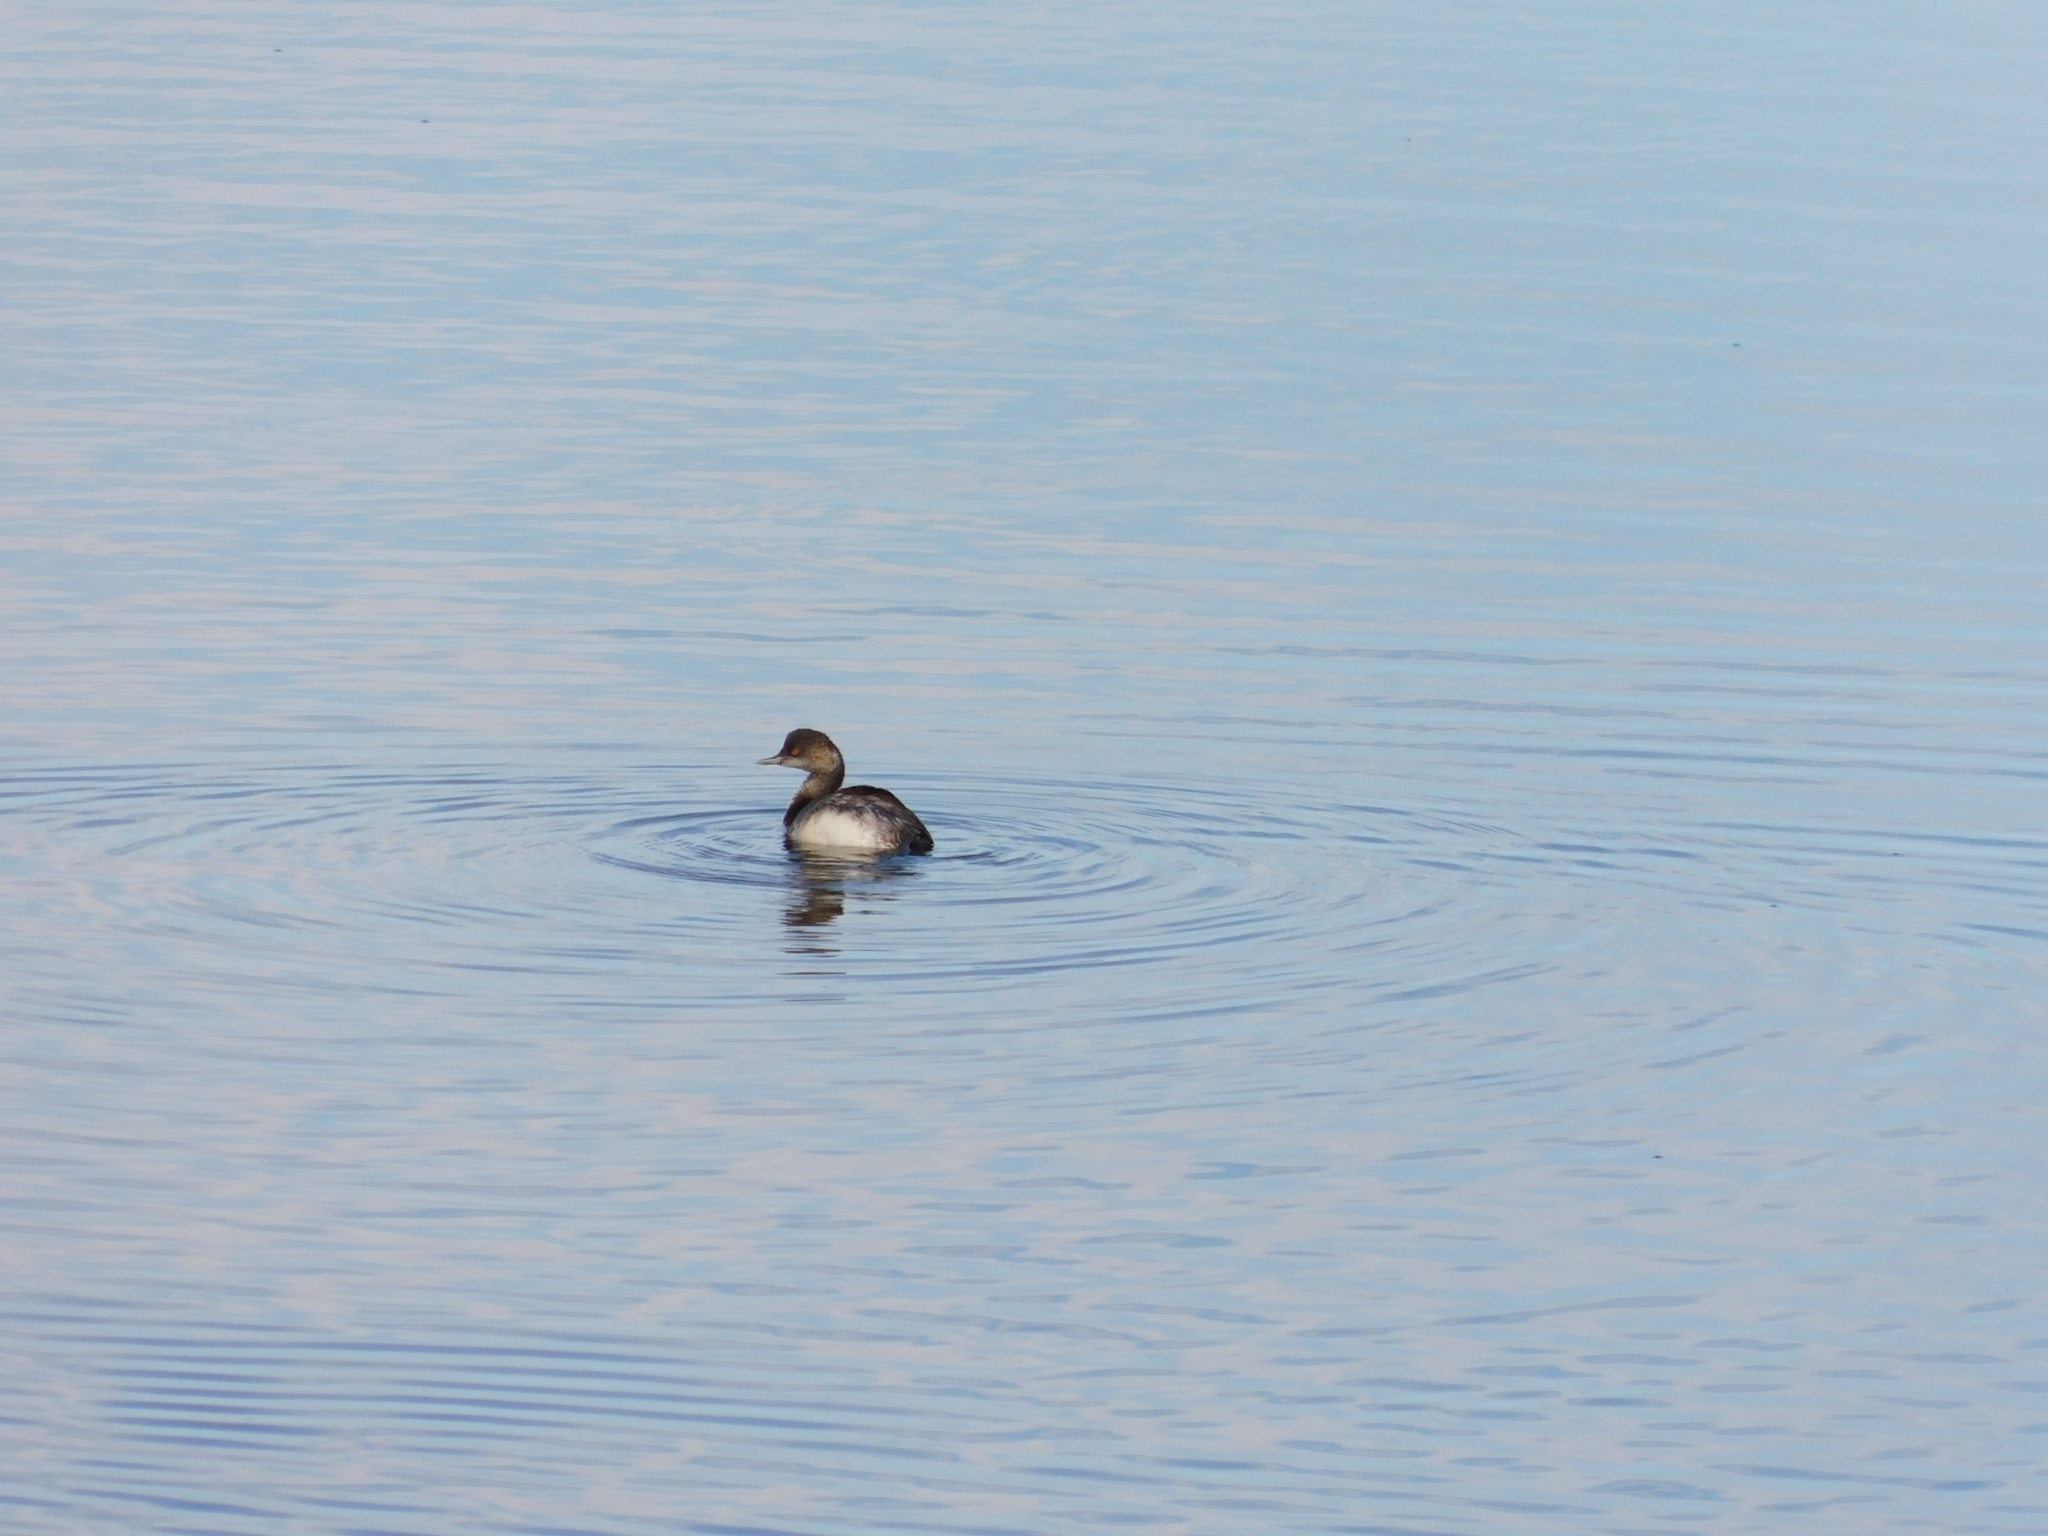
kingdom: Animalia
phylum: Chordata
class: Aves
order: Podicipediformes
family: Podicipedidae
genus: Podiceps
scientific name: Podiceps nigricollis
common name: Black-necked grebe
